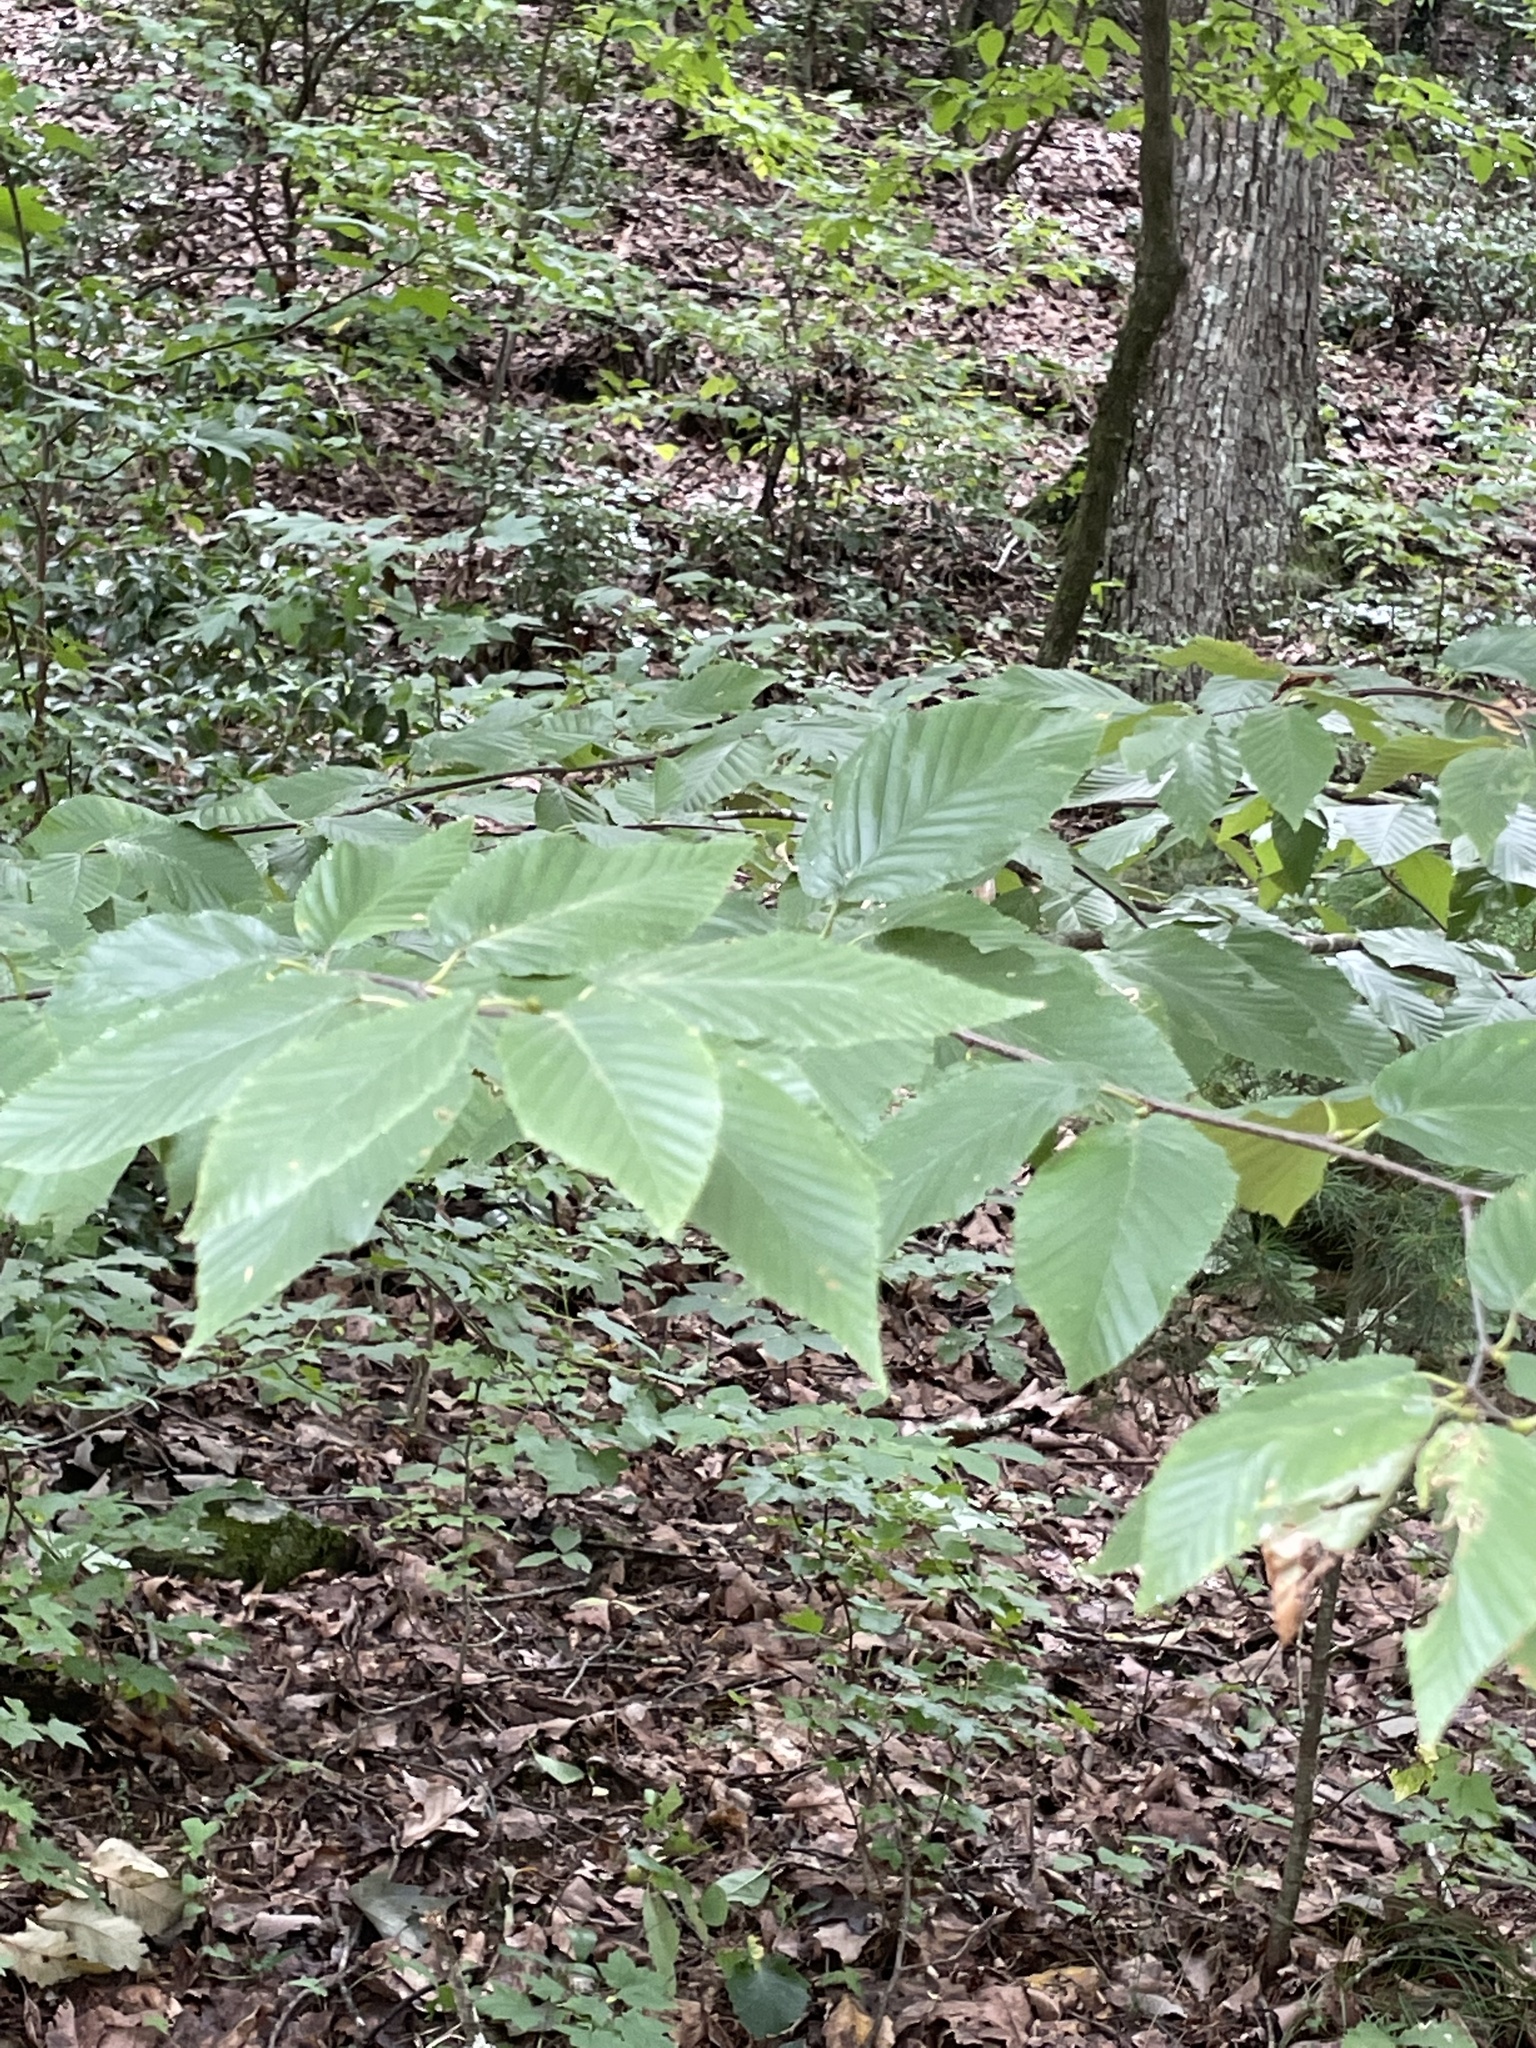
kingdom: Plantae
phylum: Tracheophyta
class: Magnoliopsida
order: Fagales
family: Fagaceae
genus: Fagus
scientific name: Fagus grandifolia
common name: American beech
